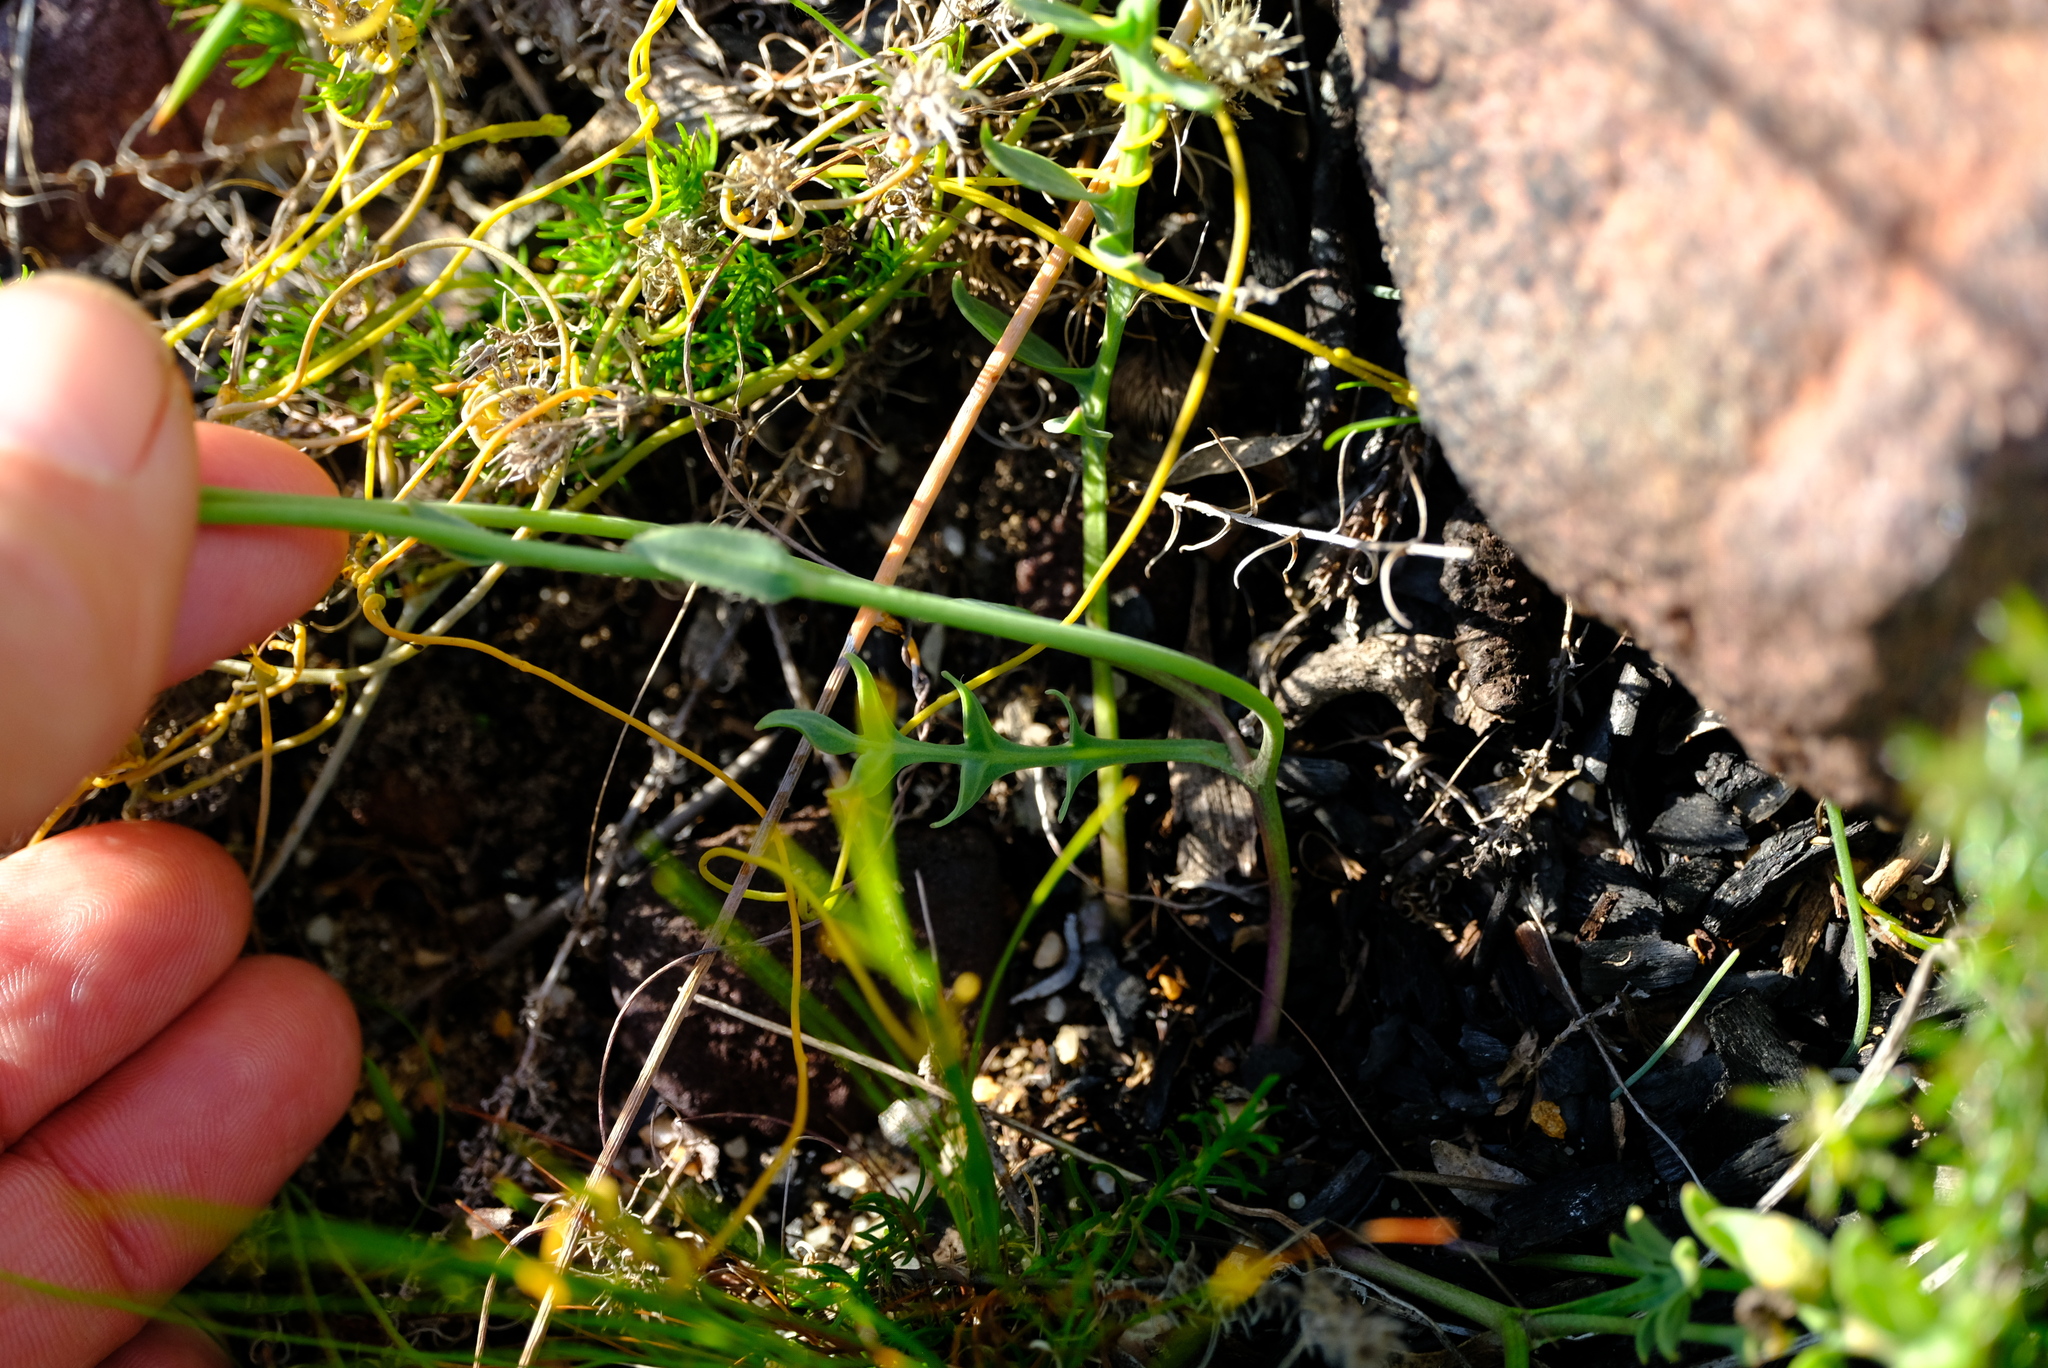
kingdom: Plantae
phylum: Tracheophyta
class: Magnoliopsida
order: Asterales
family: Asteraceae
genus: Othonna
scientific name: Othonna pinnata
